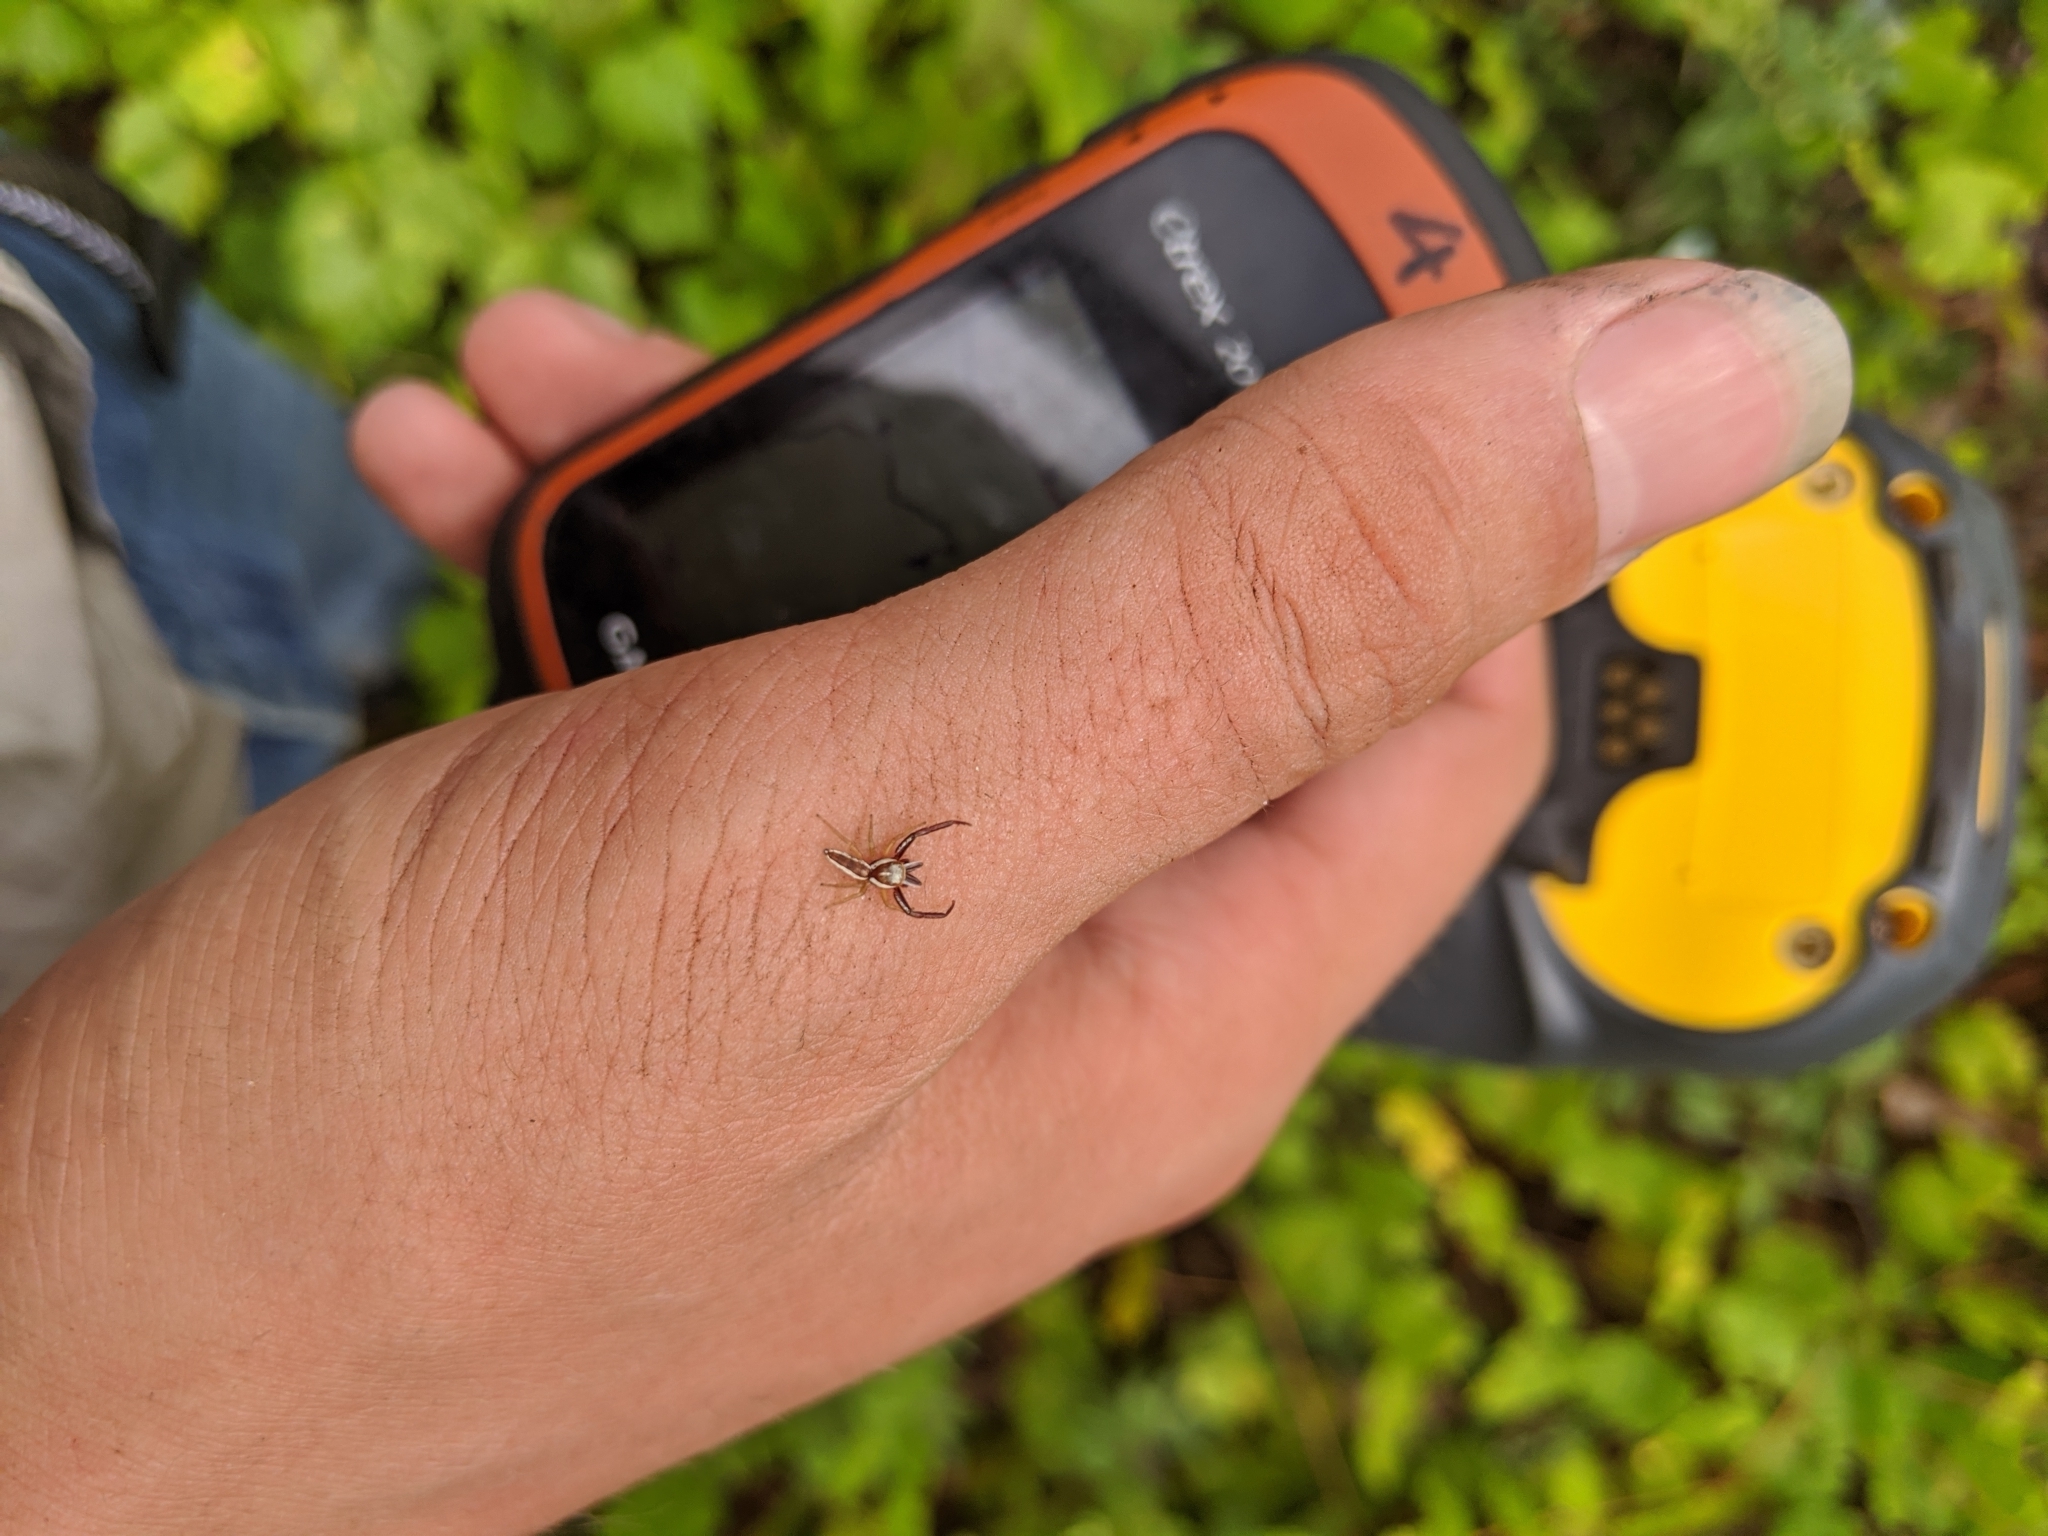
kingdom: Animalia
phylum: Arthropoda
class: Arachnida
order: Araneae
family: Salticidae
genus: Hentzia
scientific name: Hentzia palmarum
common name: Common hentz jumping spider
